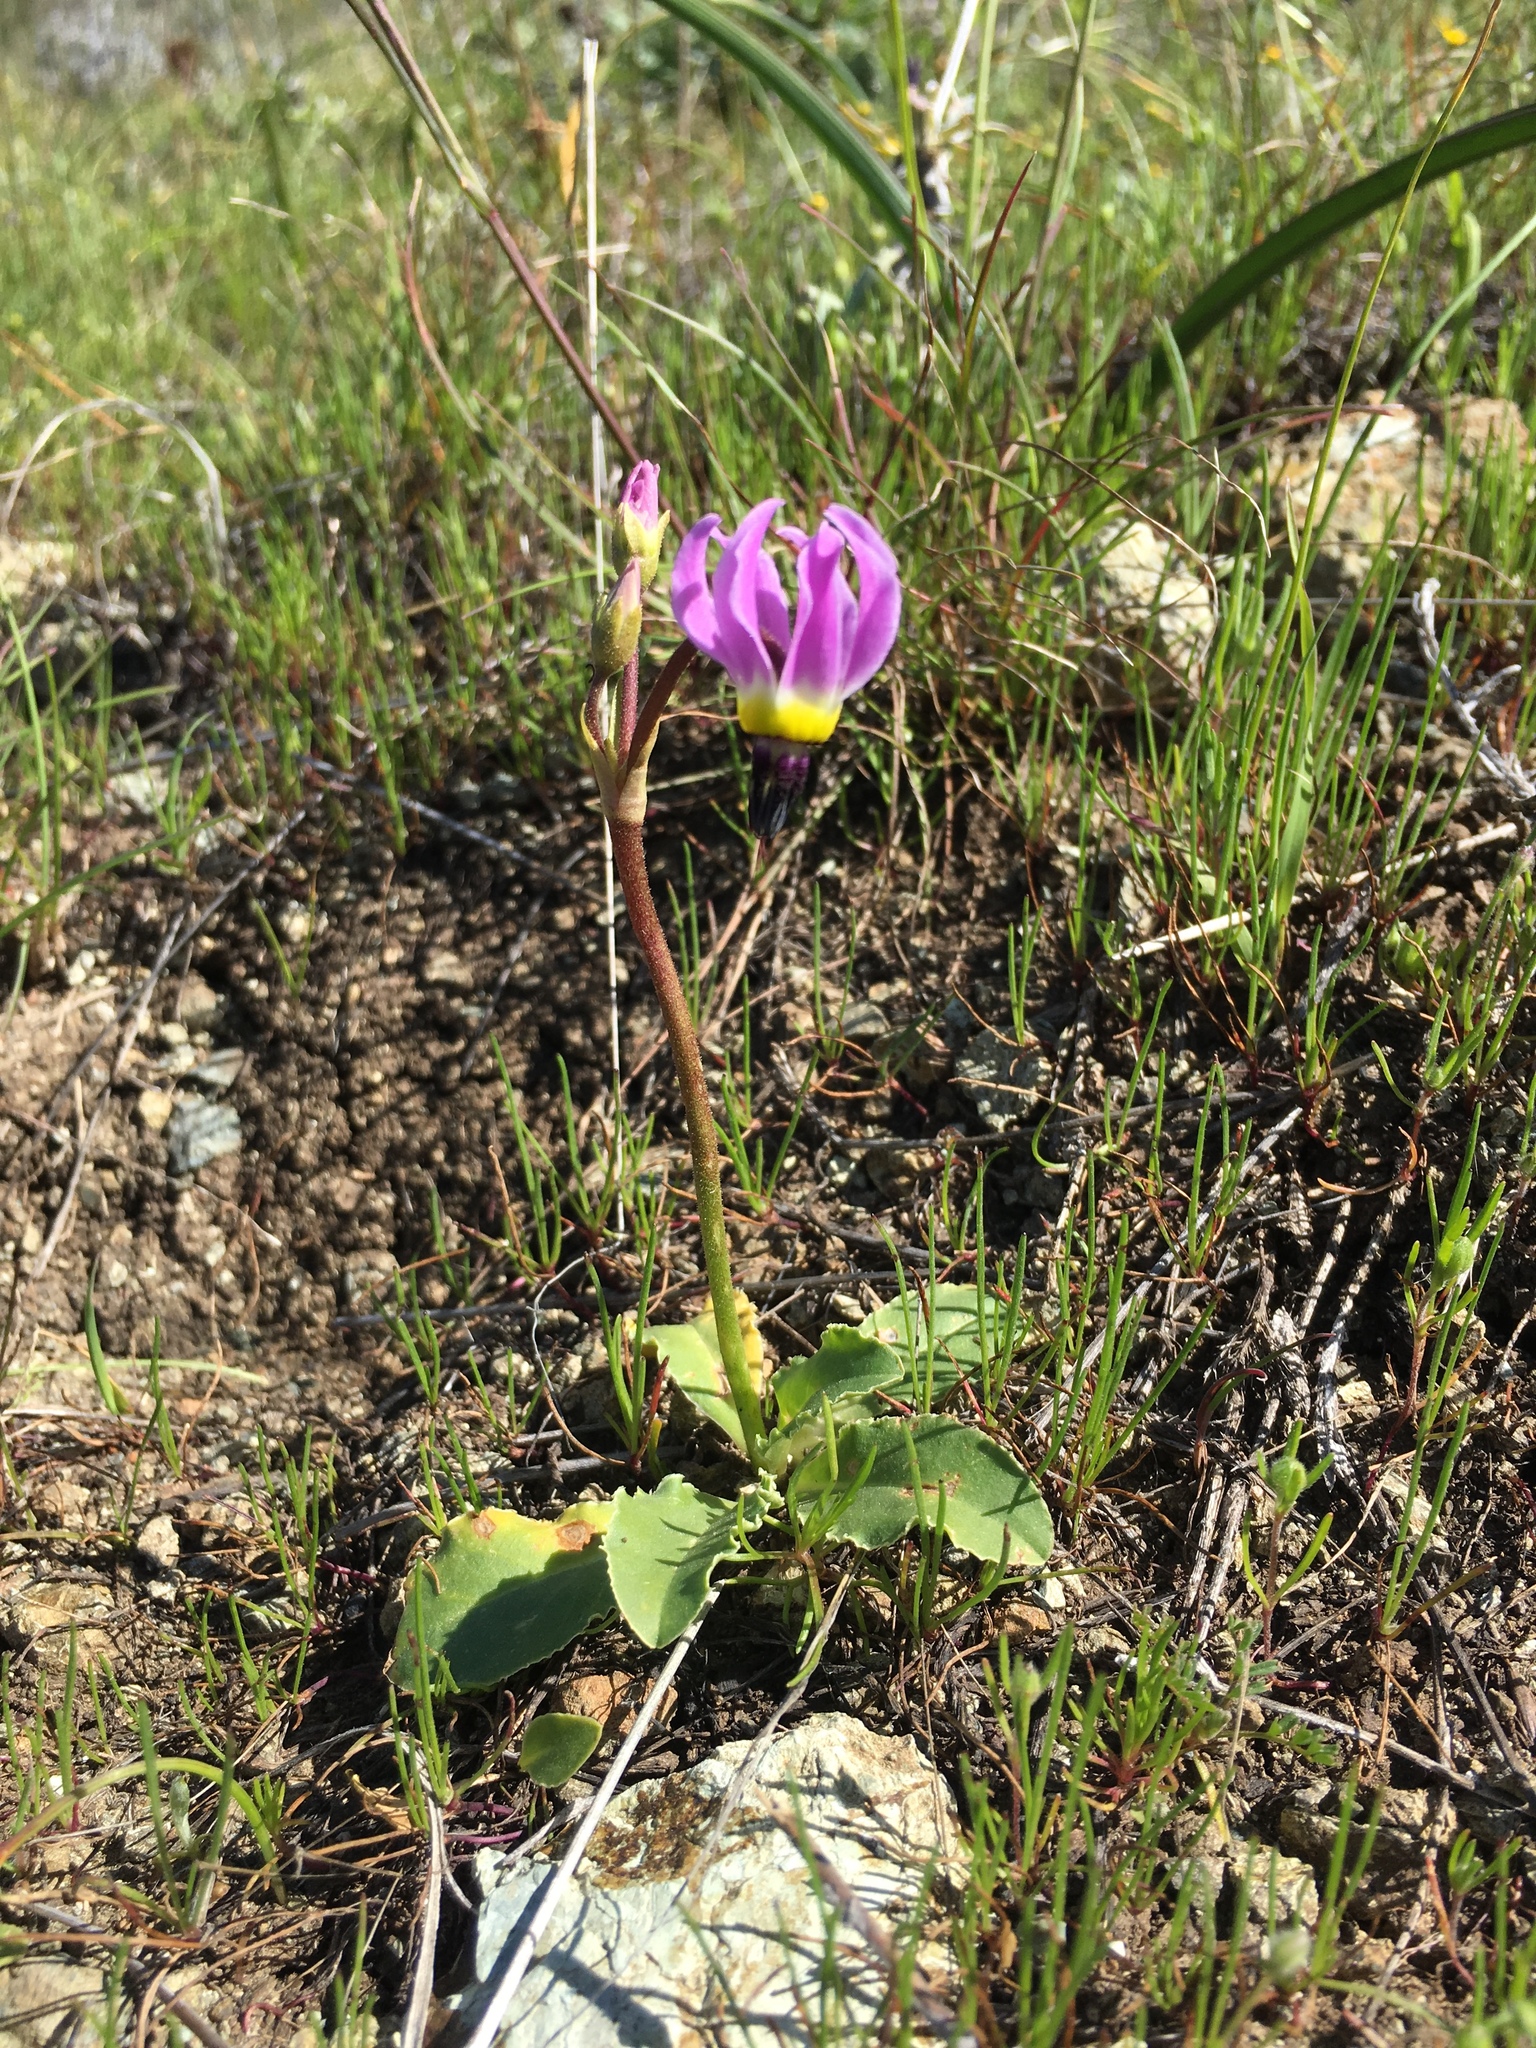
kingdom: Plantae
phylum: Tracheophyta
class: Magnoliopsida
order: Ericales
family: Primulaceae
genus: Dodecatheon
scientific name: Dodecatheon clevelandii
